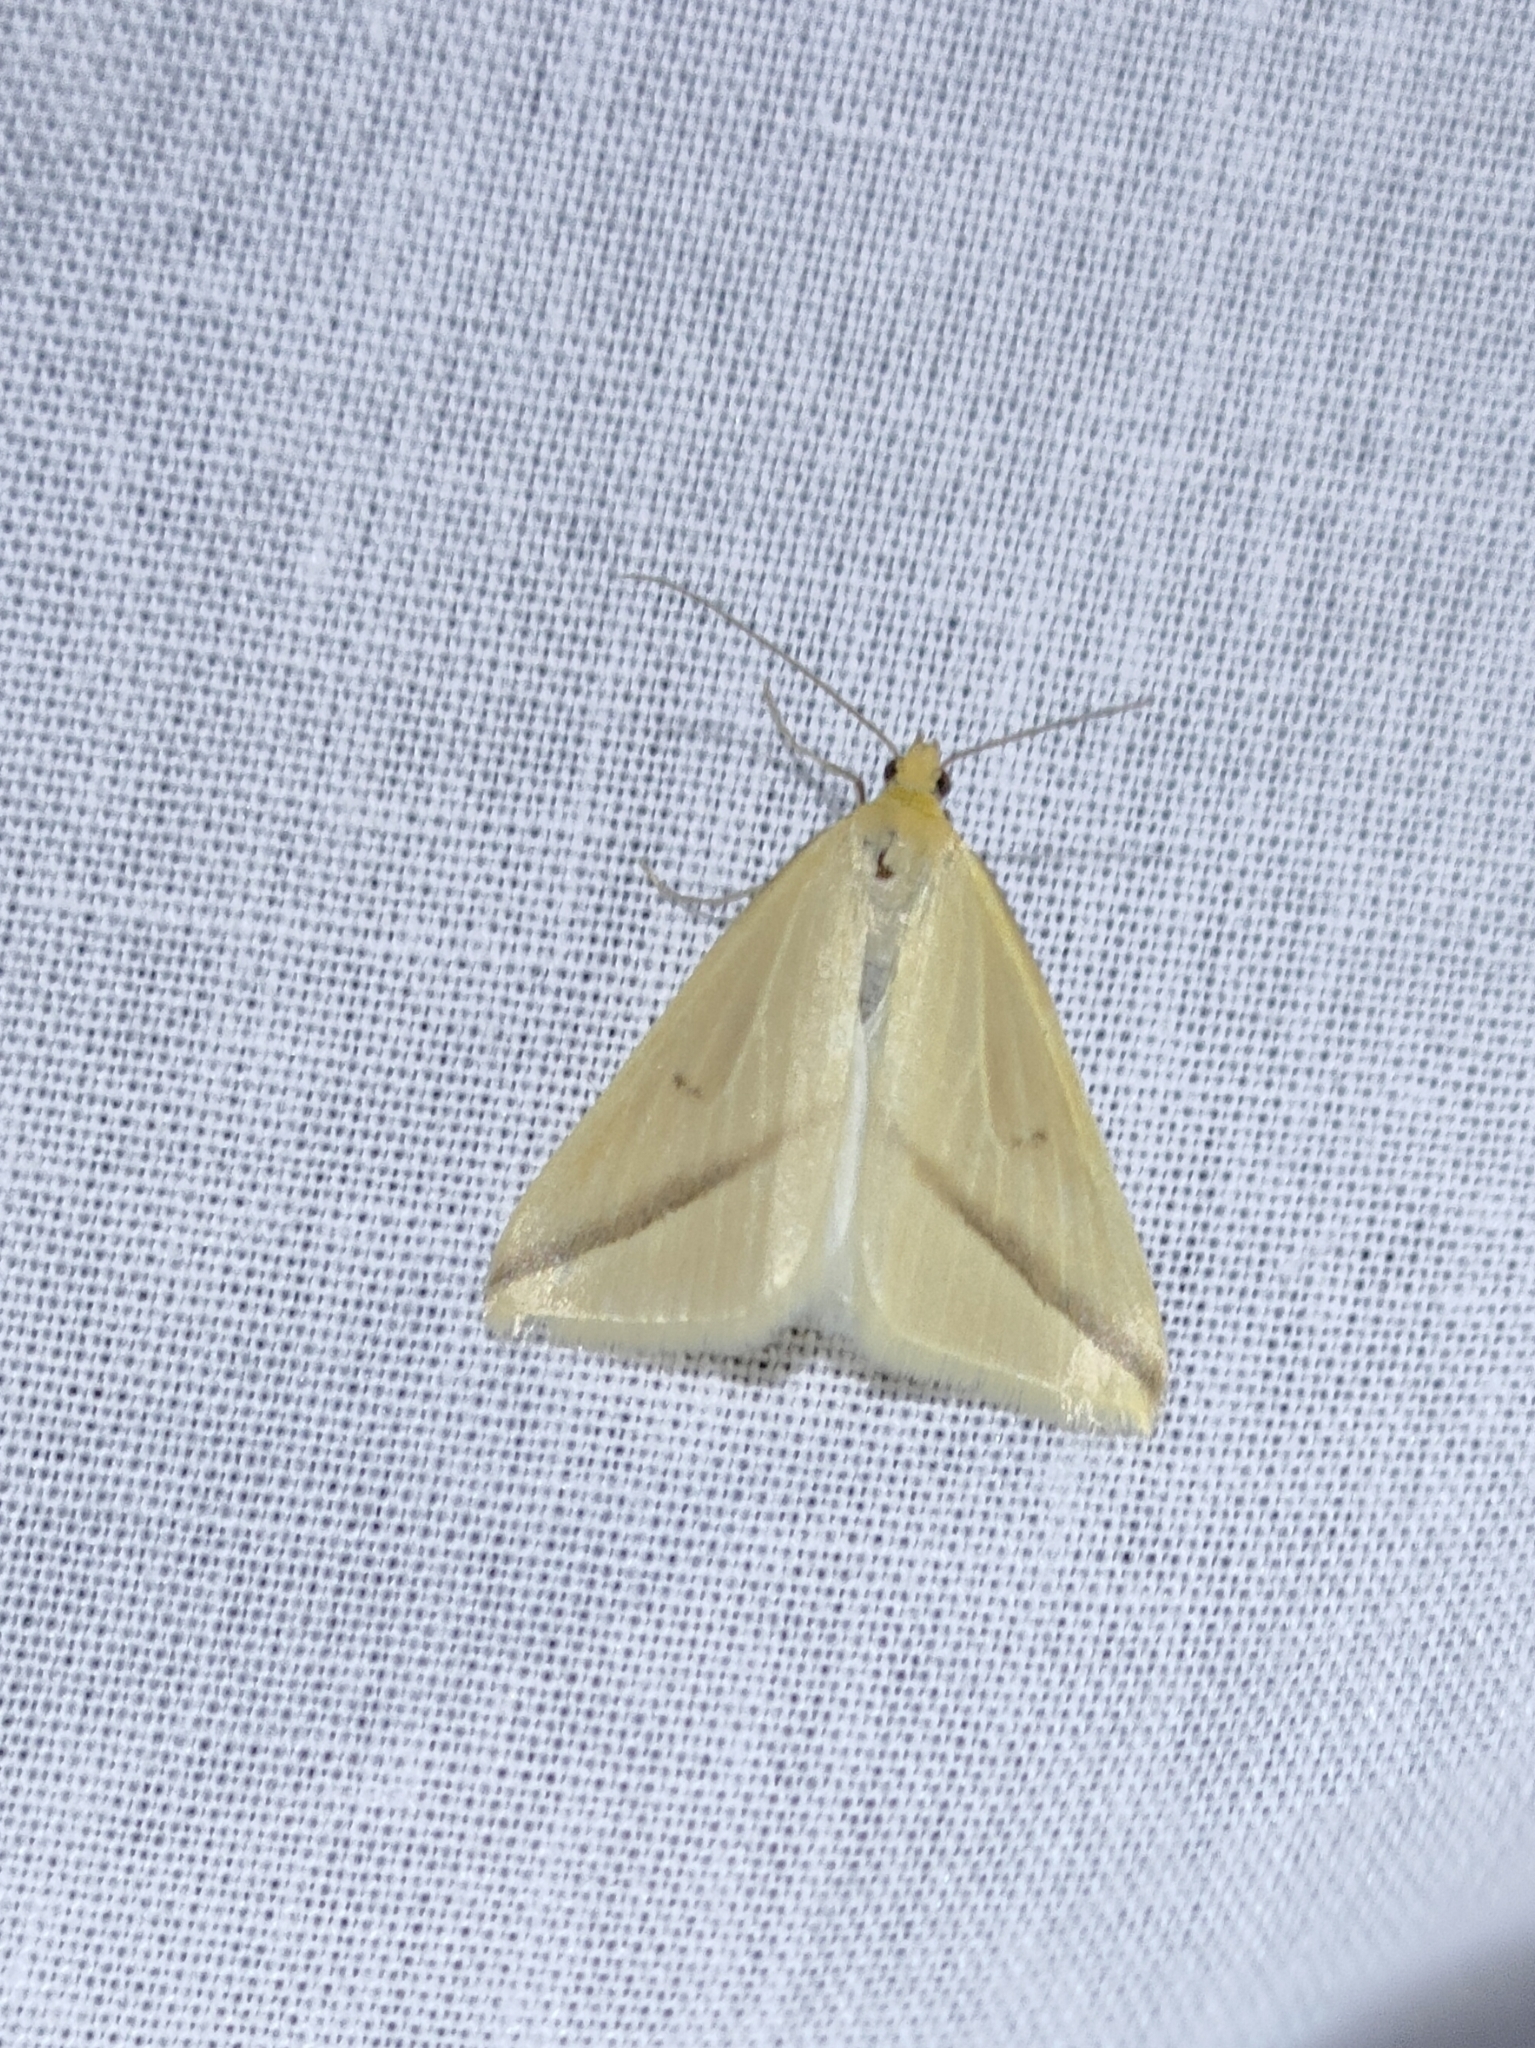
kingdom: Animalia
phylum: Arthropoda
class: Insecta
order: Lepidoptera
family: Geometridae
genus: Rhodometra
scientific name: Rhodometra sacraria
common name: Vestal
